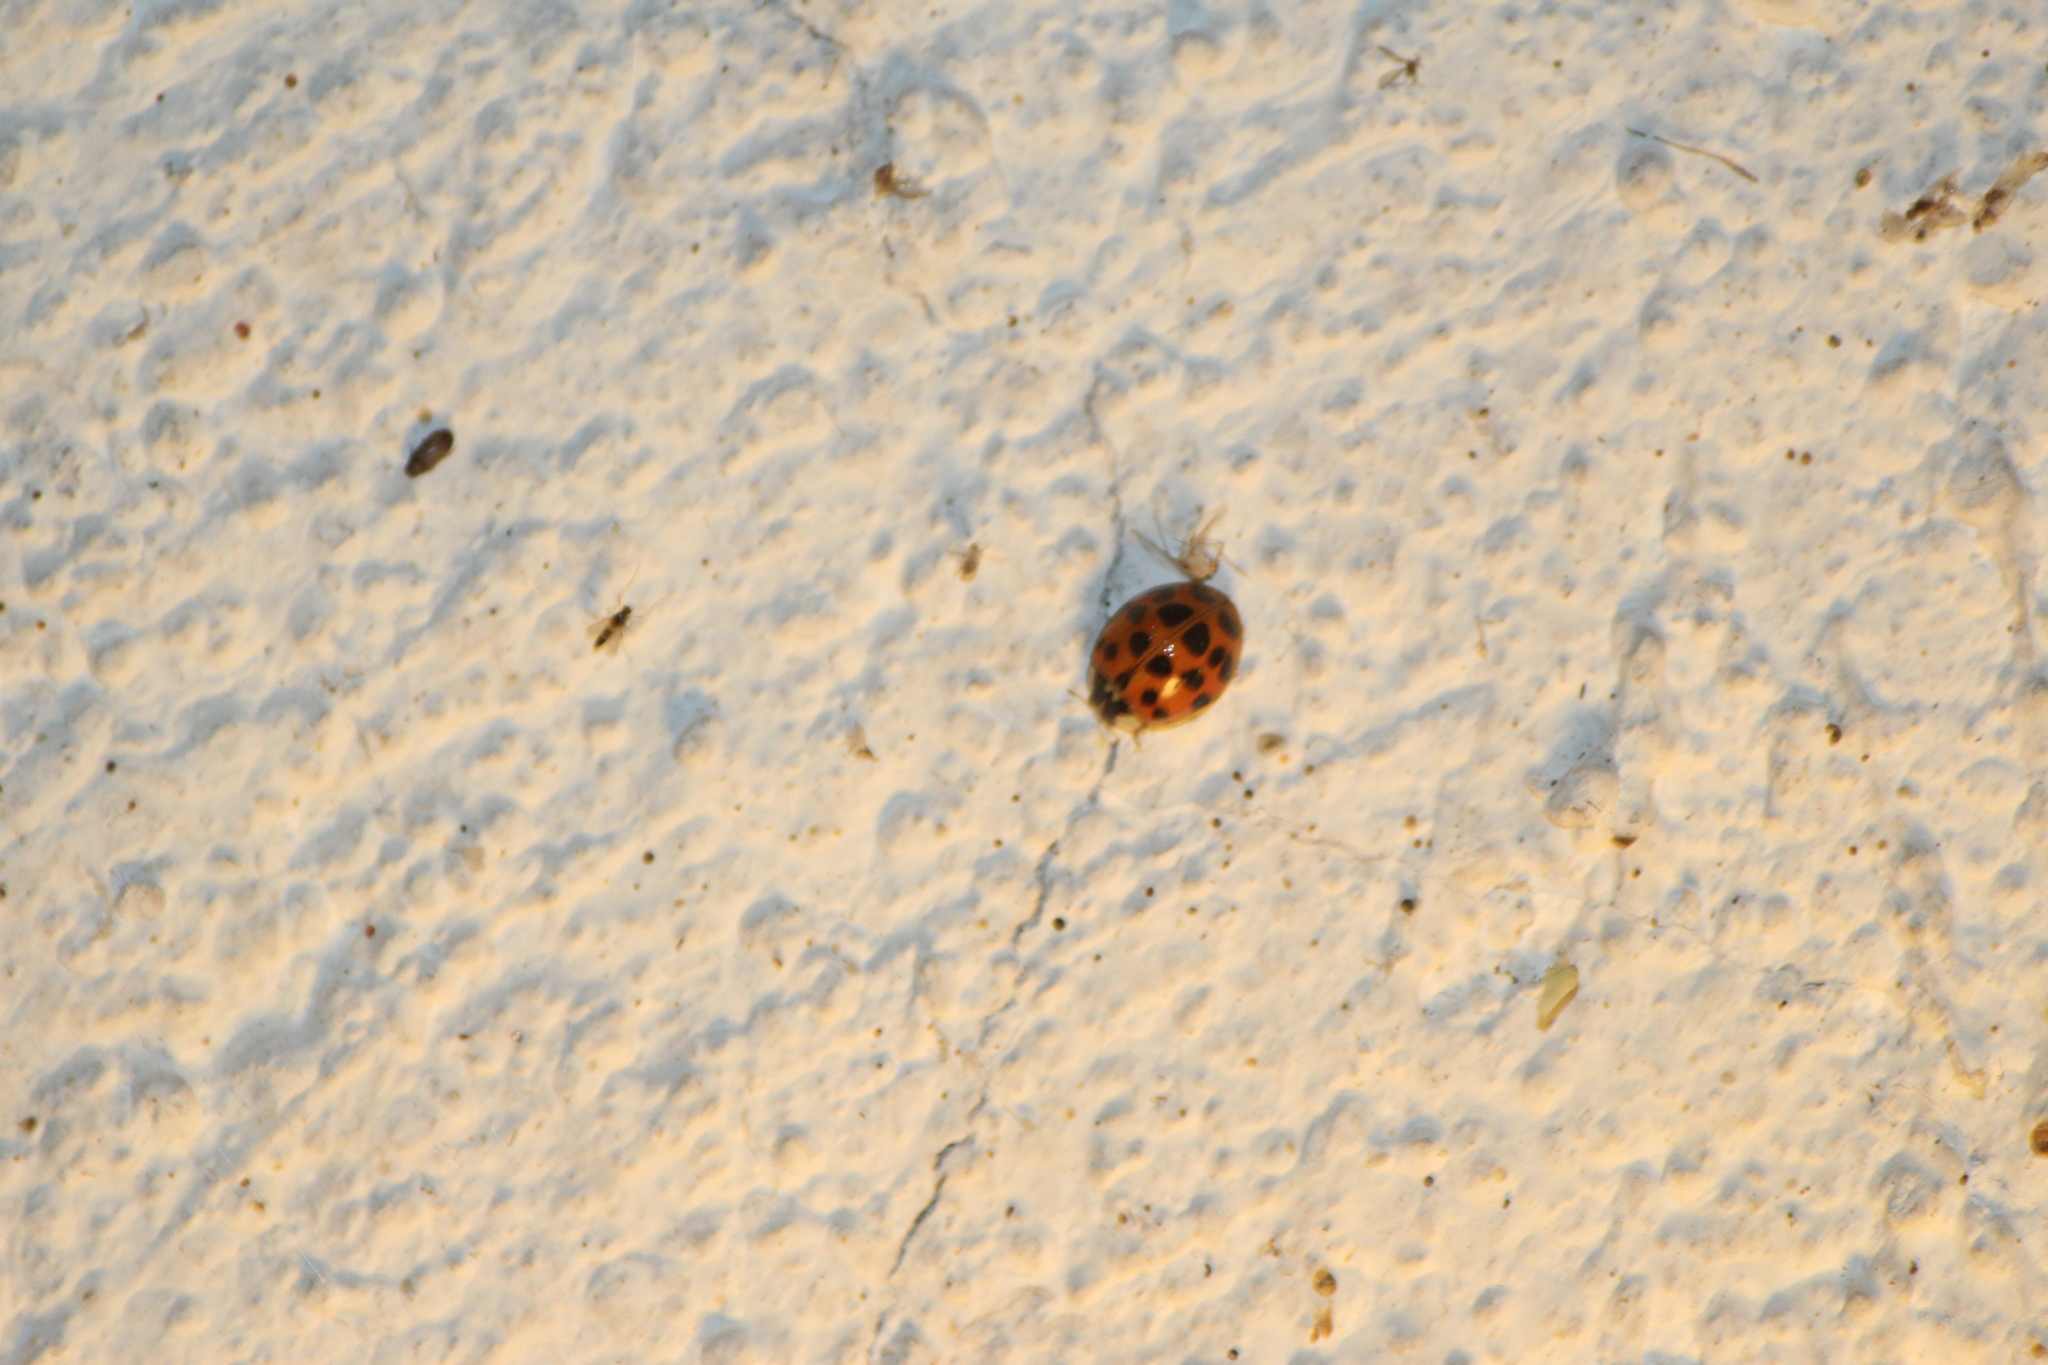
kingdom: Animalia
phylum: Arthropoda
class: Insecta
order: Coleoptera
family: Coccinellidae
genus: Harmonia
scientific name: Harmonia axyridis
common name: Harlequin ladybird
